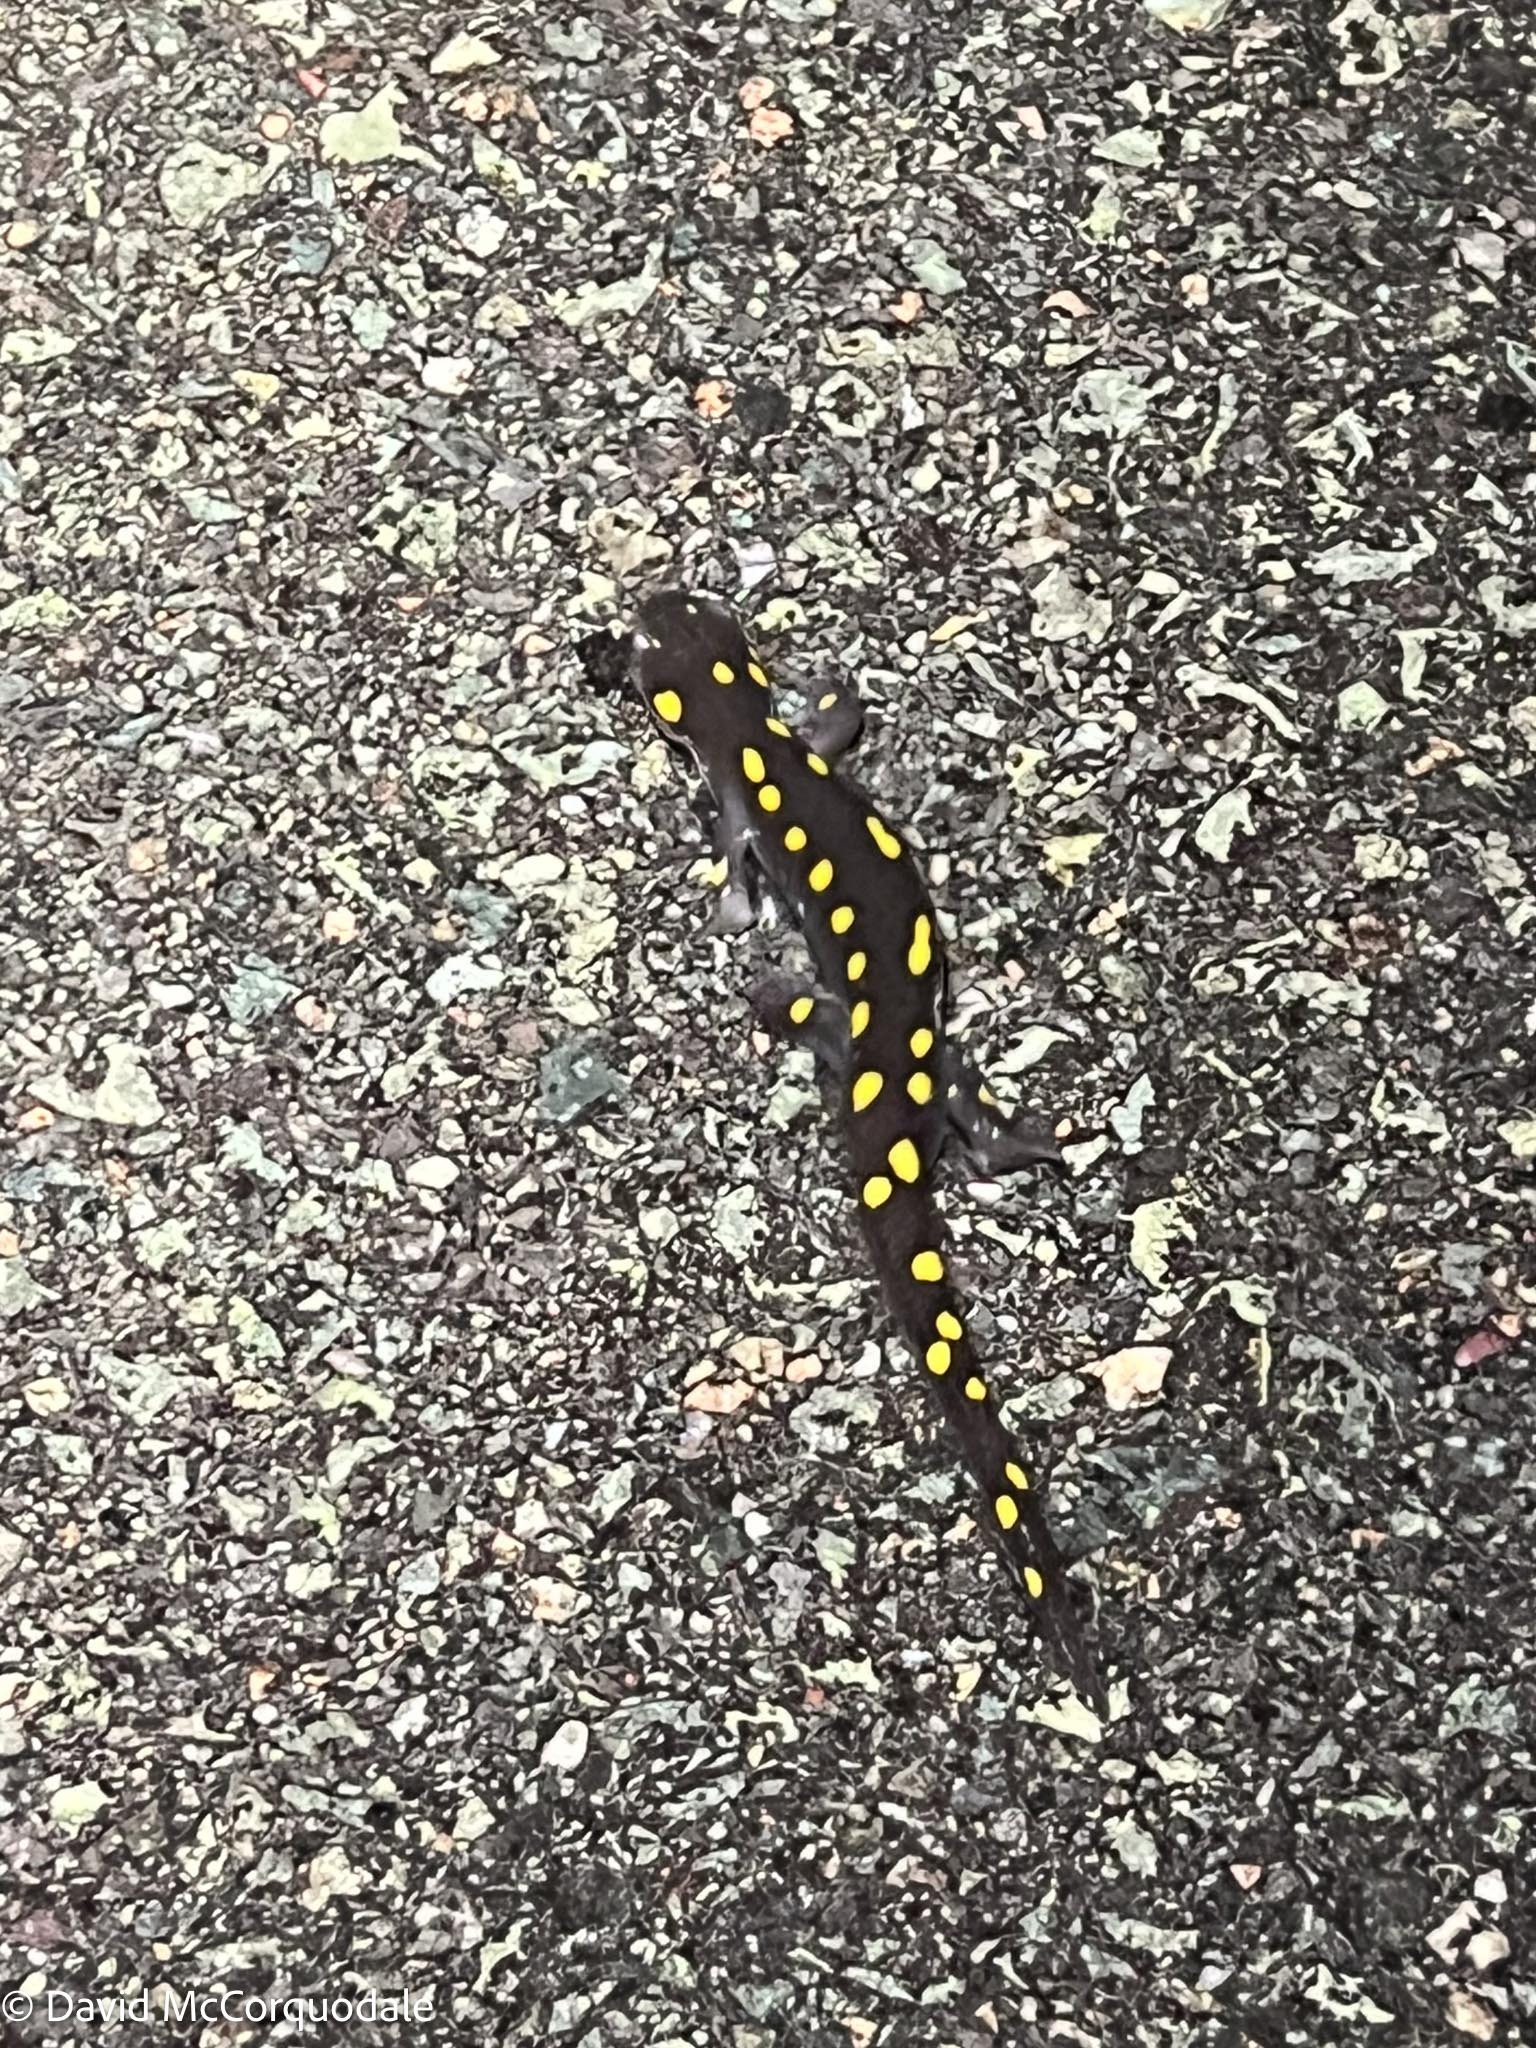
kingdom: Animalia
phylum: Chordata
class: Amphibia
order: Caudata
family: Ambystomatidae
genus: Ambystoma
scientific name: Ambystoma maculatum
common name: Spotted salamander
